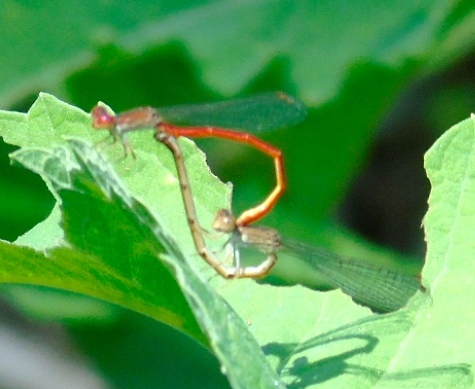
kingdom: Animalia
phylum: Arthropoda
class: Insecta
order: Odonata
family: Coenagrionidae
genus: Telebasis
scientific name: Telebasis
